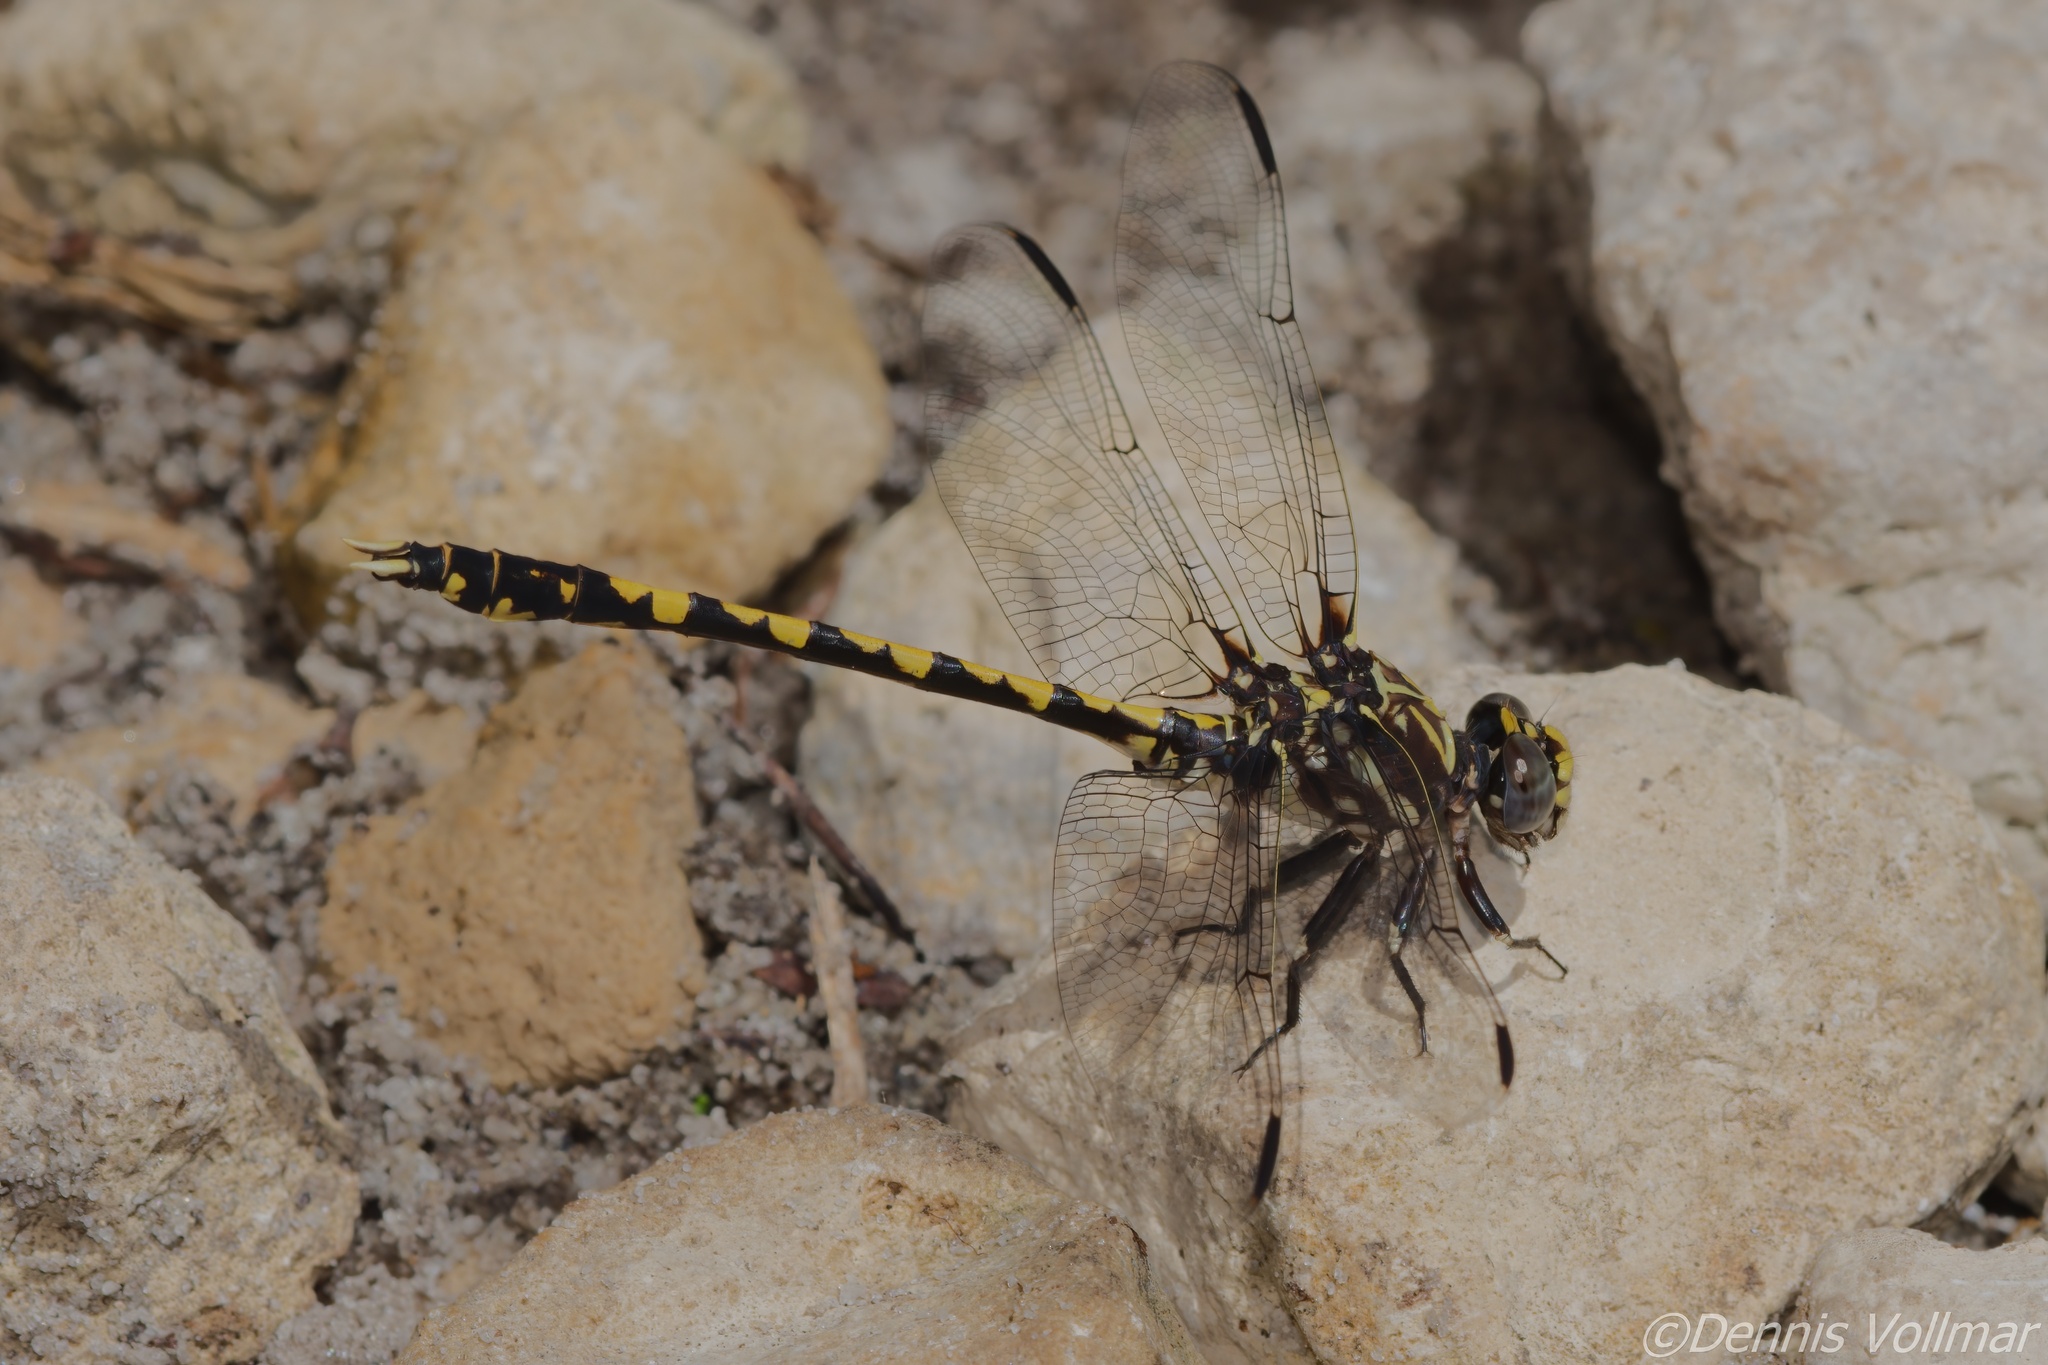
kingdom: Animalia
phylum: Arthropoda
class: Insecta
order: Odonata
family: Gomphidae
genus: Progomphus
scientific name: Progomphus bellei
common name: Belle's sanddragon
